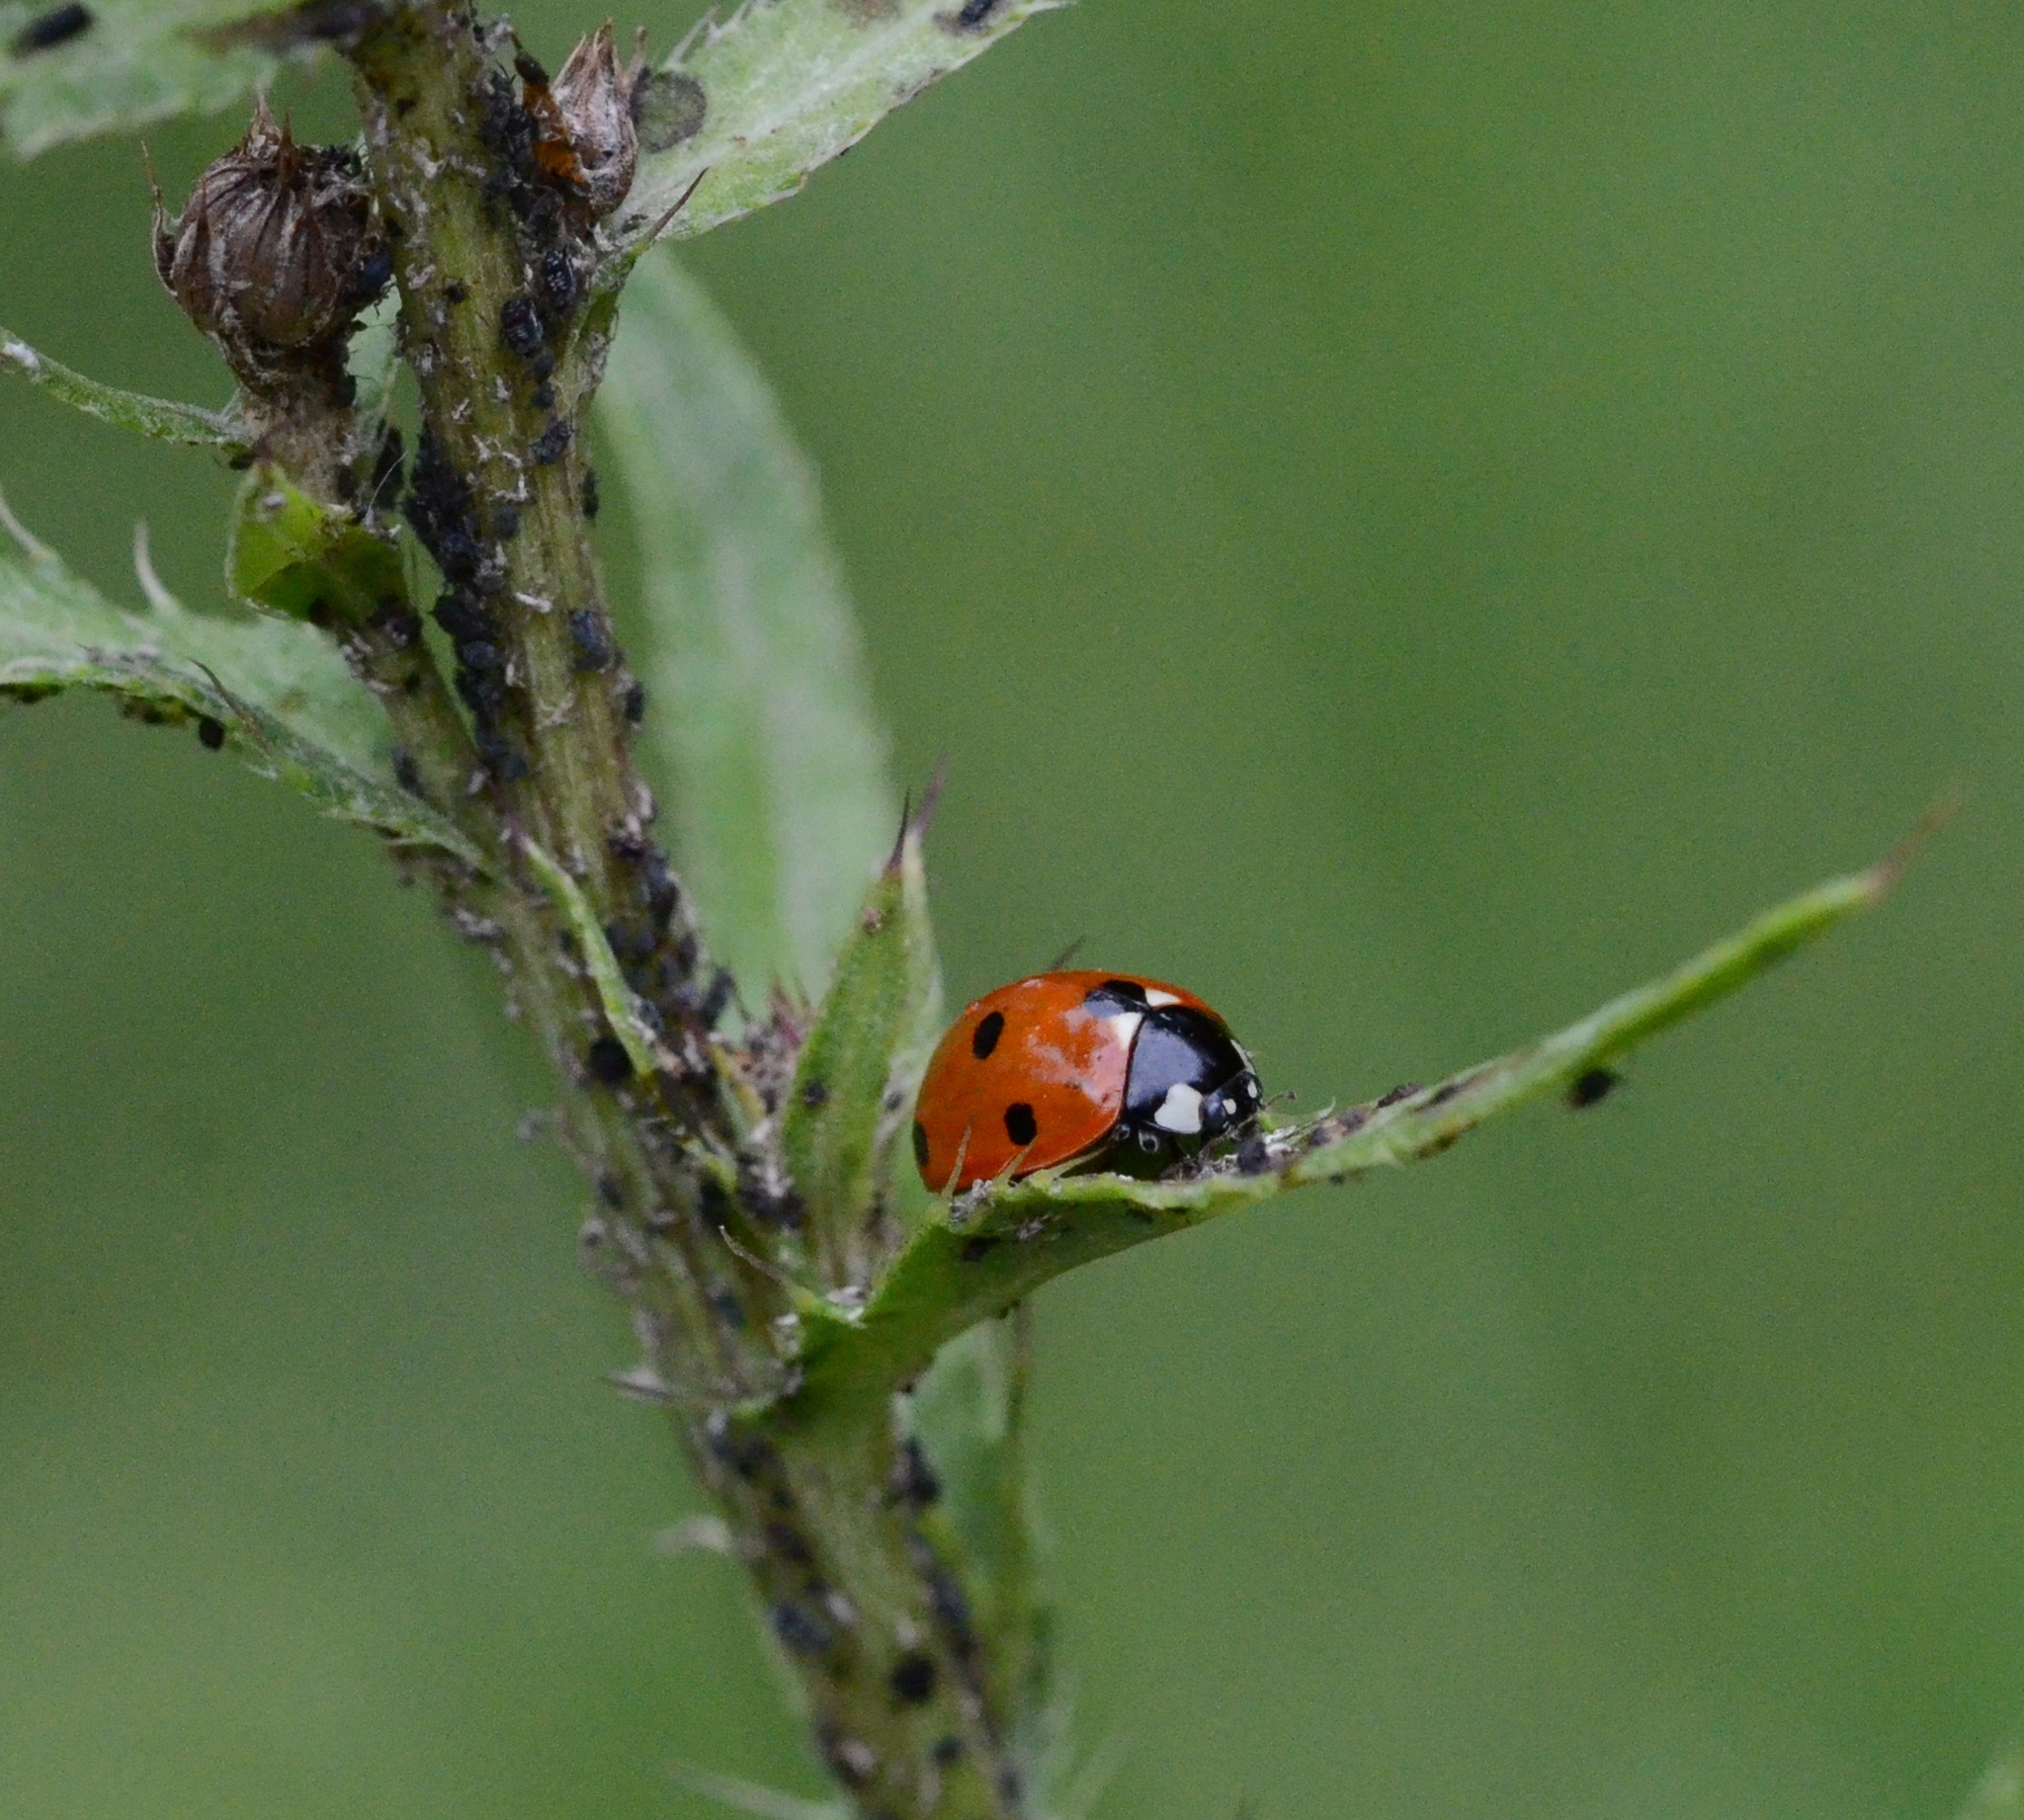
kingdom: Animalia
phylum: Arthropoda
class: Insecta
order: Coleoptera
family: Coccinellidae
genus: Coccinella
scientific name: Coccinella septempunctata
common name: Sevenspotted lady beetle
